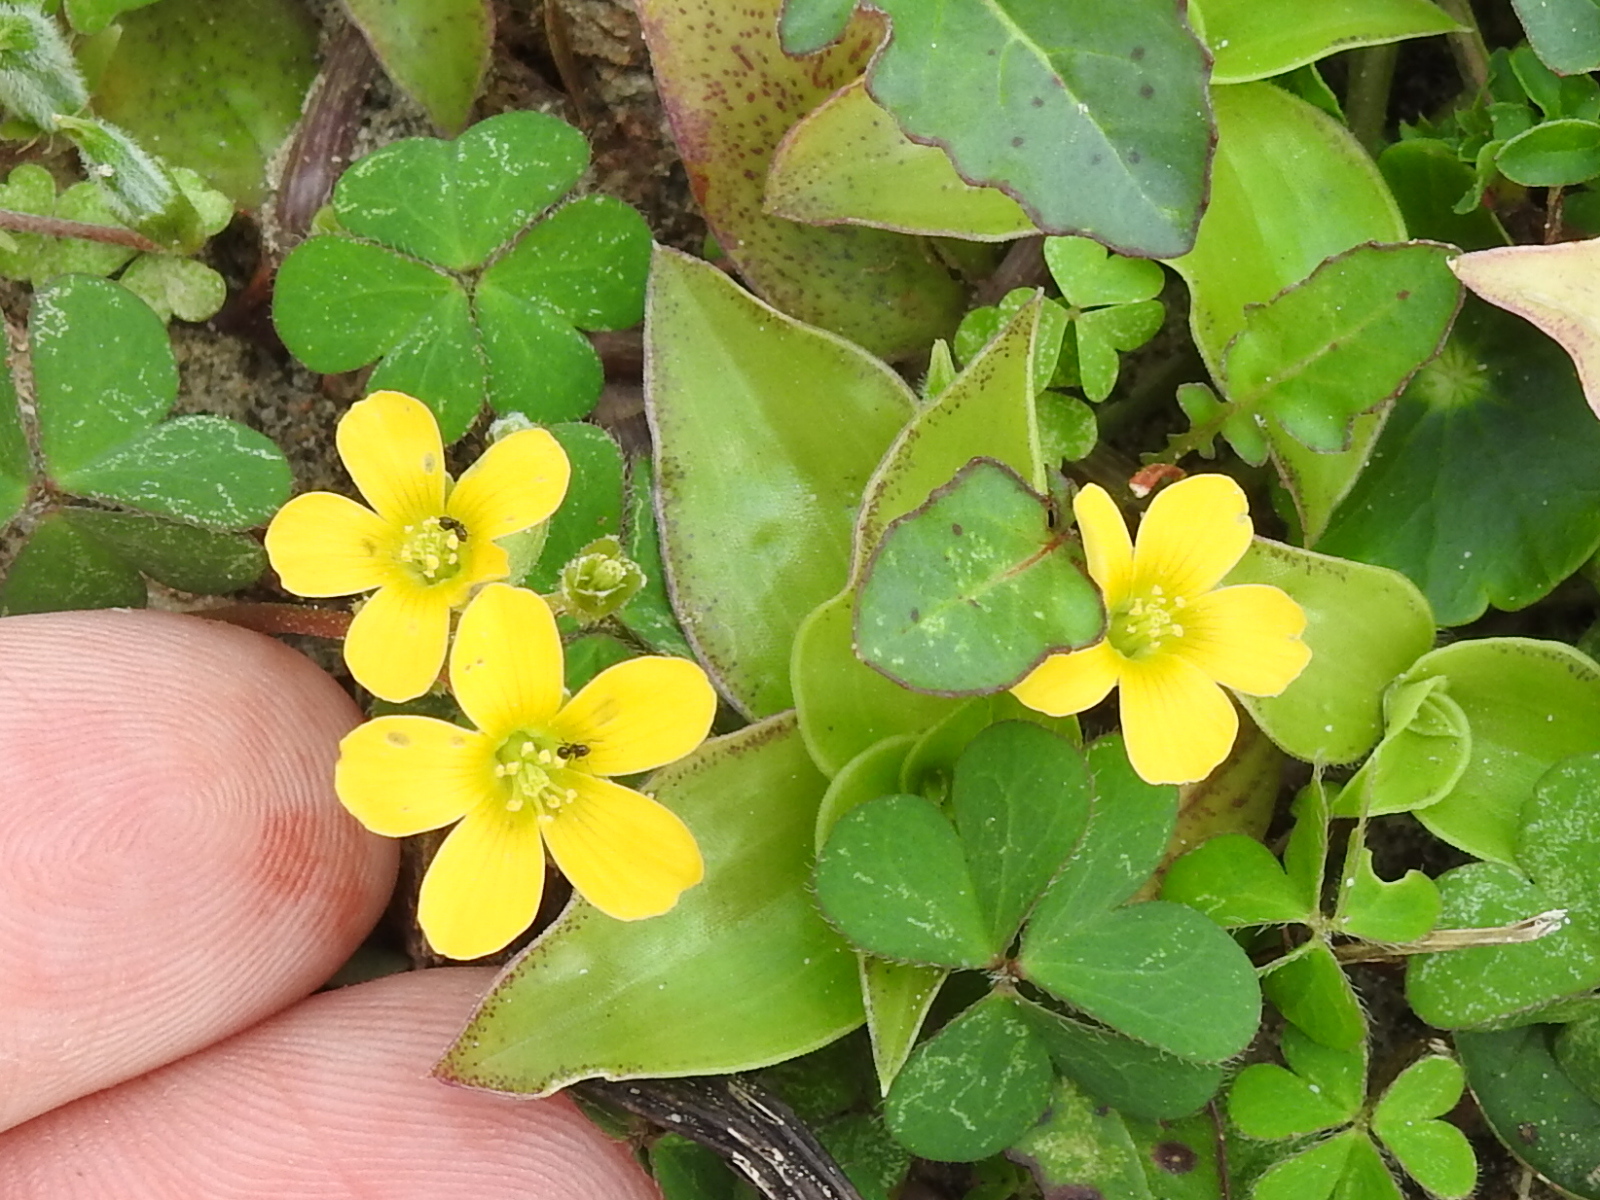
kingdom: Plantae
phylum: Tracheophyta
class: Magnoliopsida
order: Oxalidales
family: Oxalidaceae
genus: Oxalis
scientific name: Oxalis dillenii
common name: Sussex yellow-sorrel
